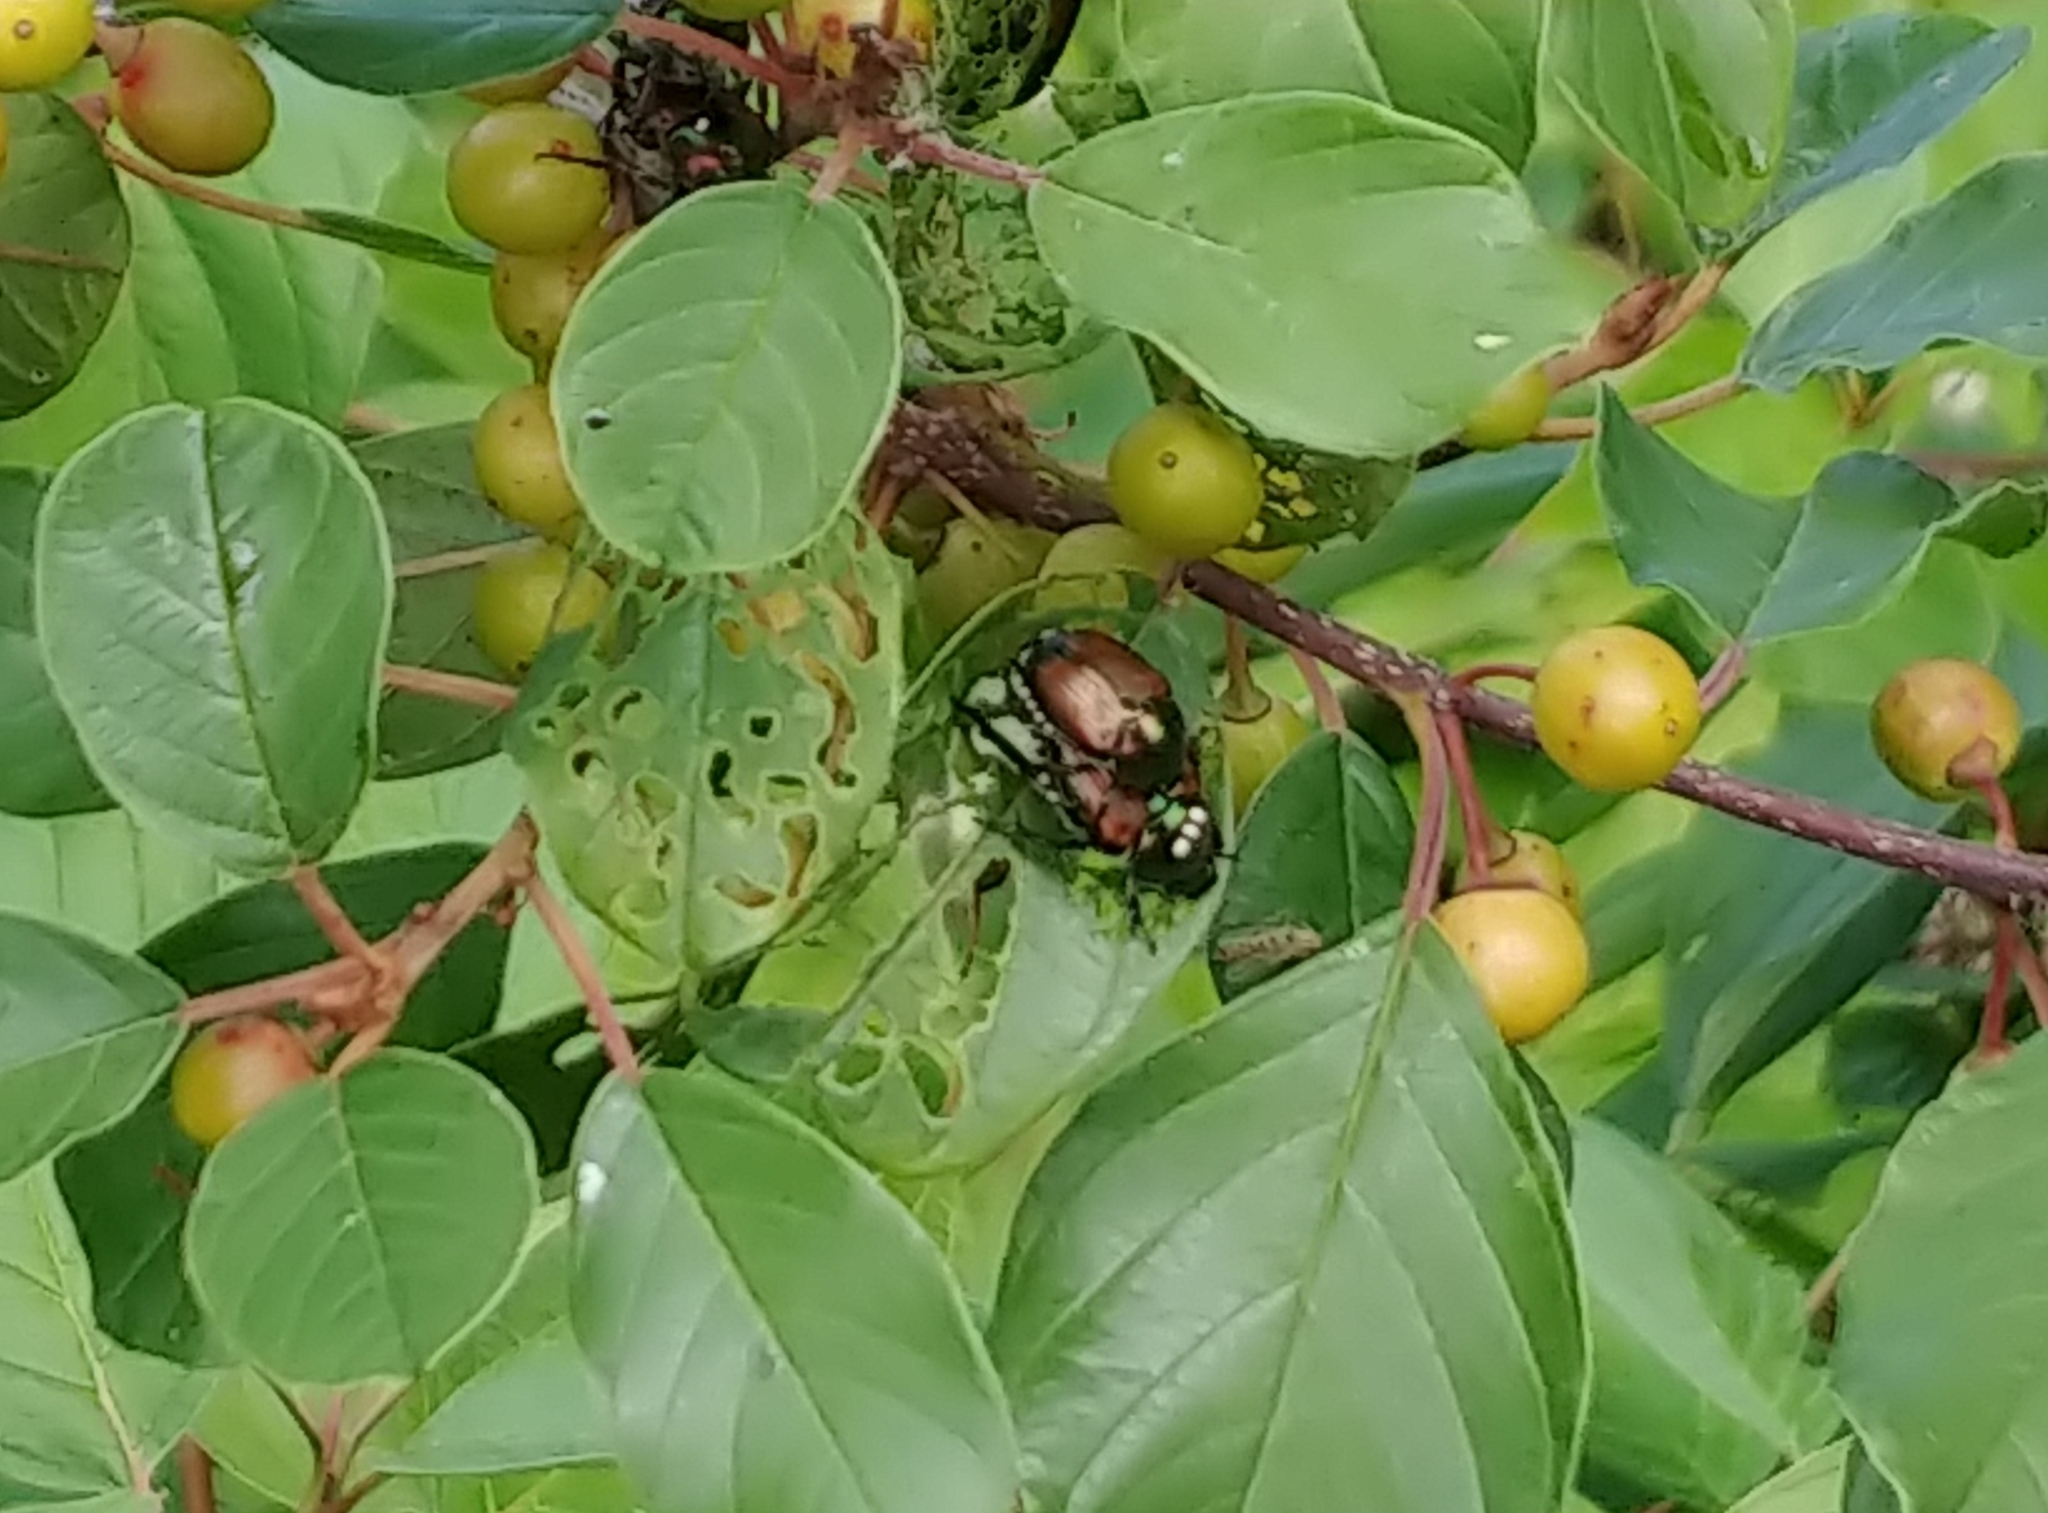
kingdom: Animalia
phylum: Arthropoda
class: Insecta
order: Coleoptera
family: Scarabaeidae
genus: Popillia
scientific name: Popillia japonica
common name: Japanese beetle
